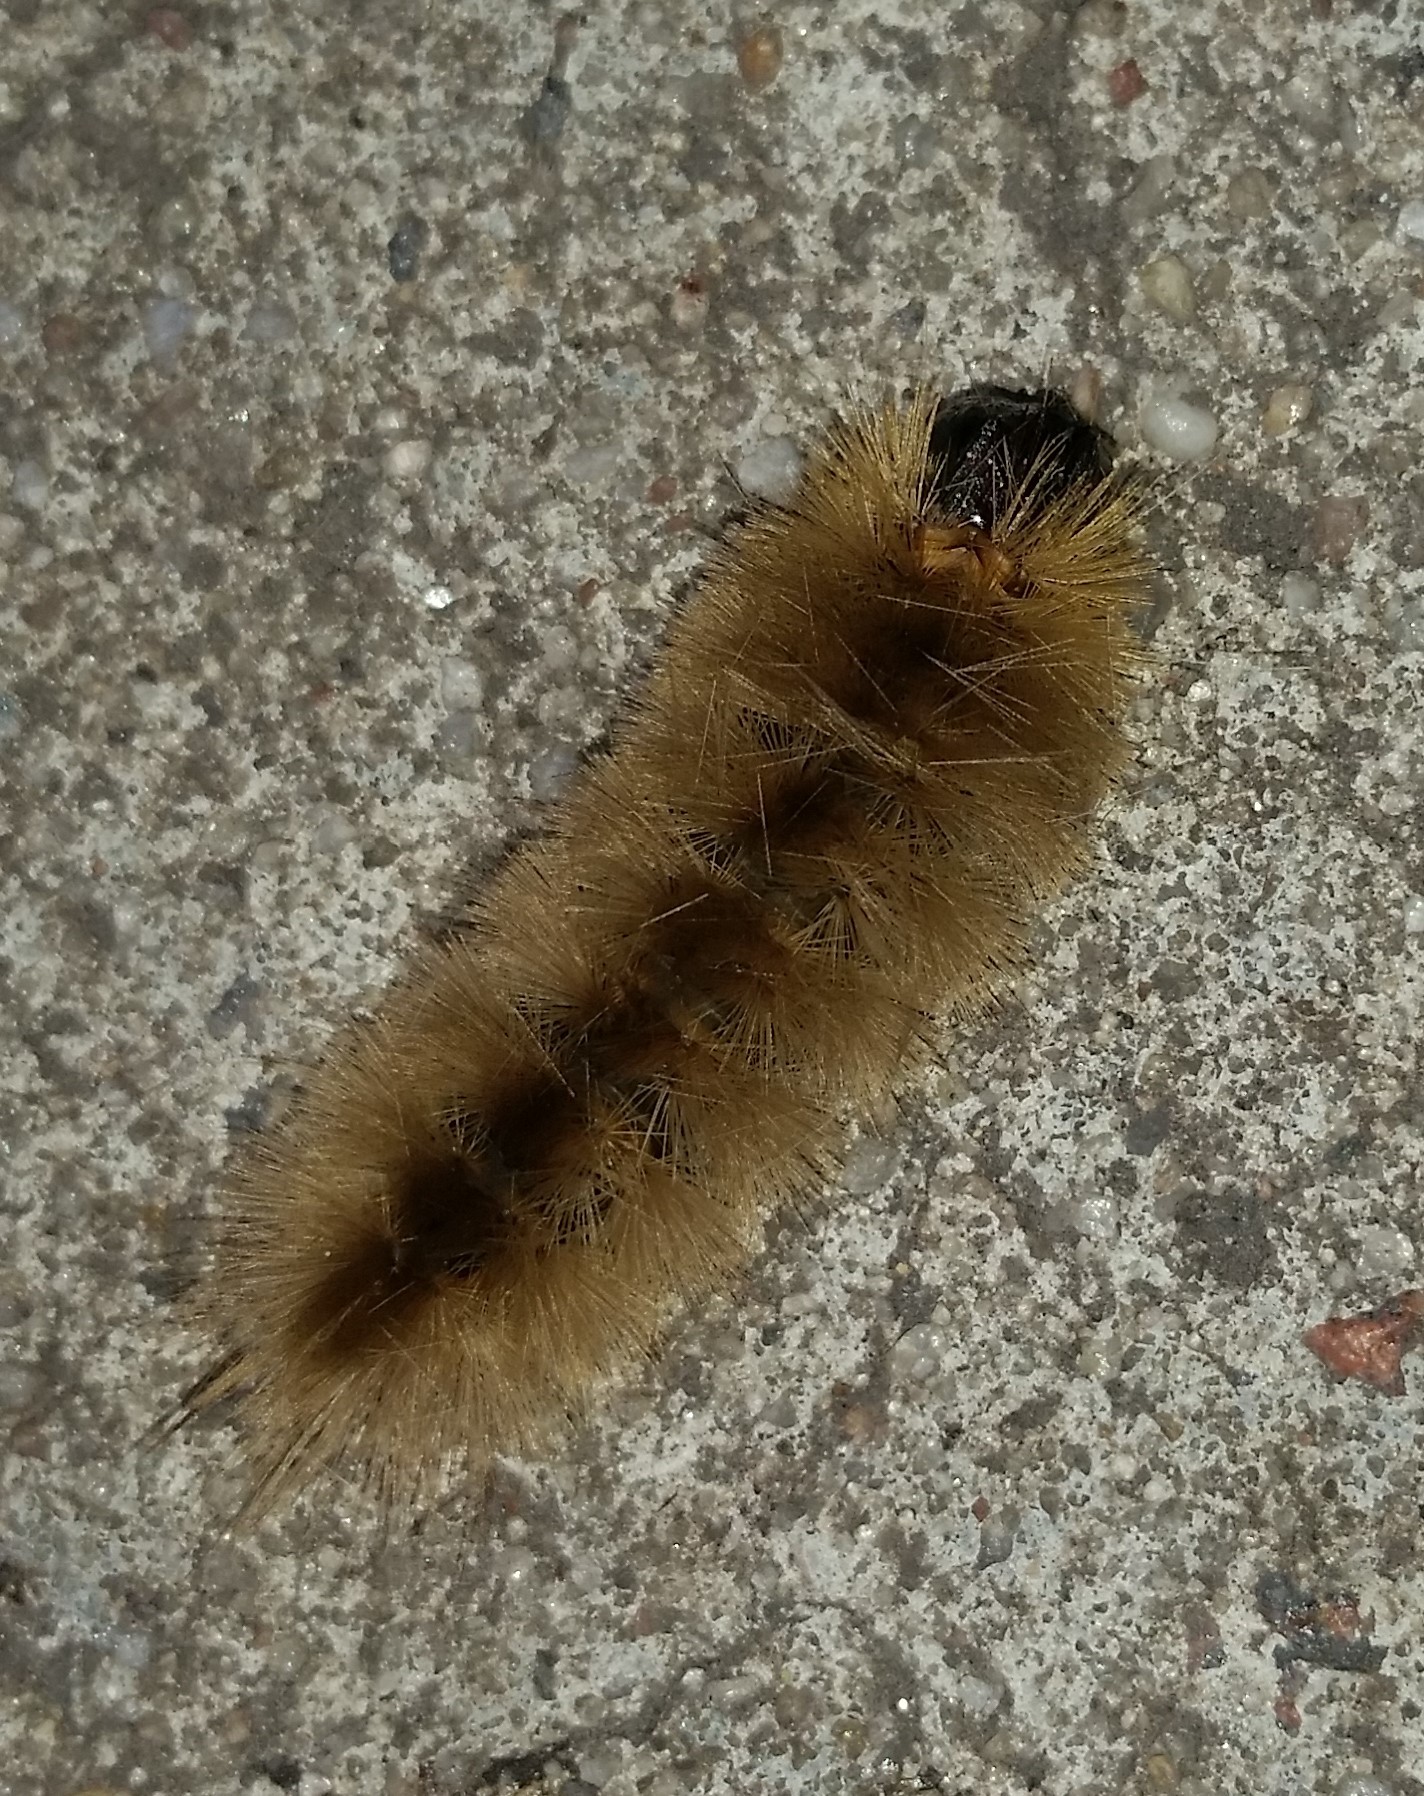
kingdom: Animalia
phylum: Arthropoda
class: Insecta
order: Lepidoptera
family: Erebidae
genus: Halysidota
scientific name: Halysidota tessellaris
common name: Banded tussock moth
